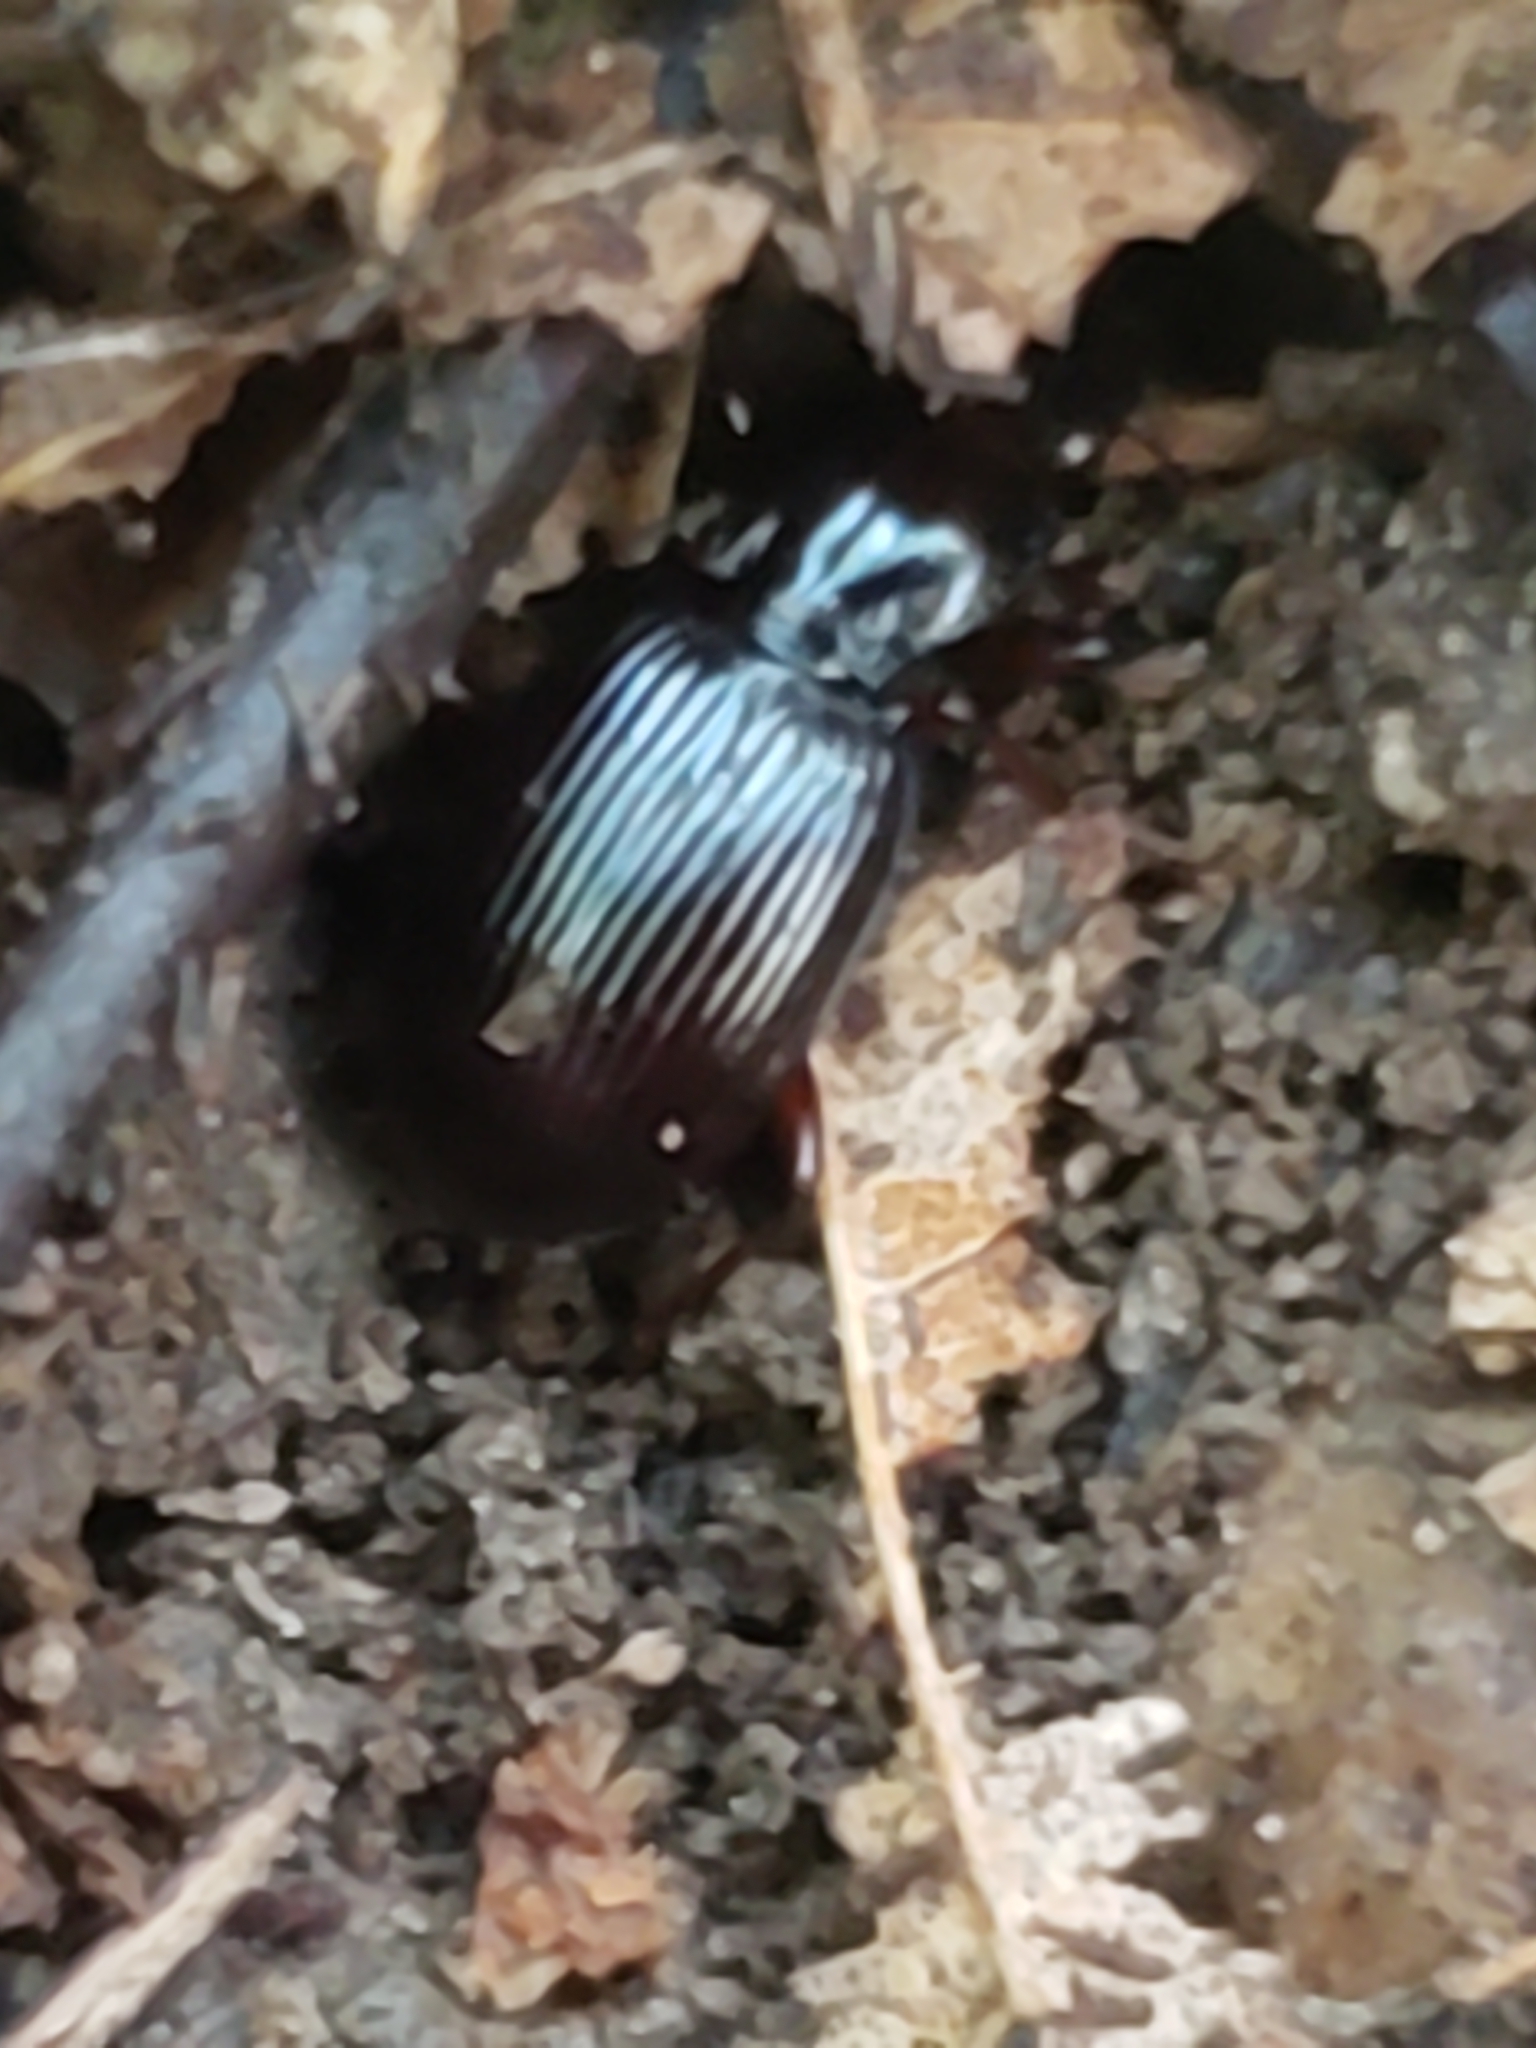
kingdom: Animalia
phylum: Arthropoda
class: Insecta
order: Coleoptera
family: Carabidae
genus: Gastrellarius
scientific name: Gastrellarius honestus
